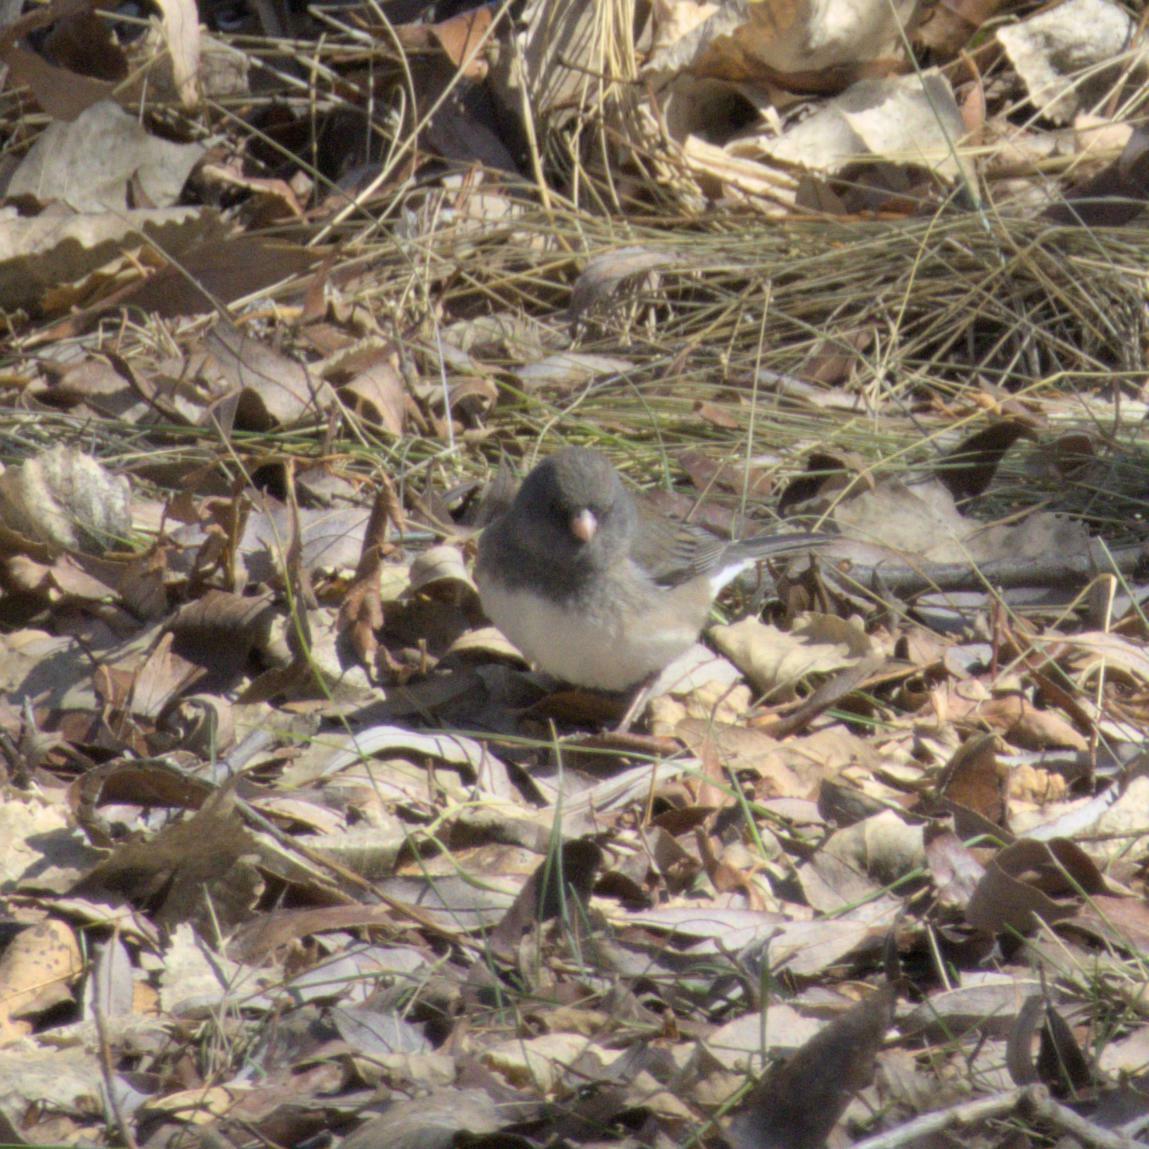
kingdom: Animalia
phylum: Chordata
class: Aves
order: Passeriformes
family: Passerellidae
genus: Junco
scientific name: Junco hyemalis
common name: Dark-eyed junco
